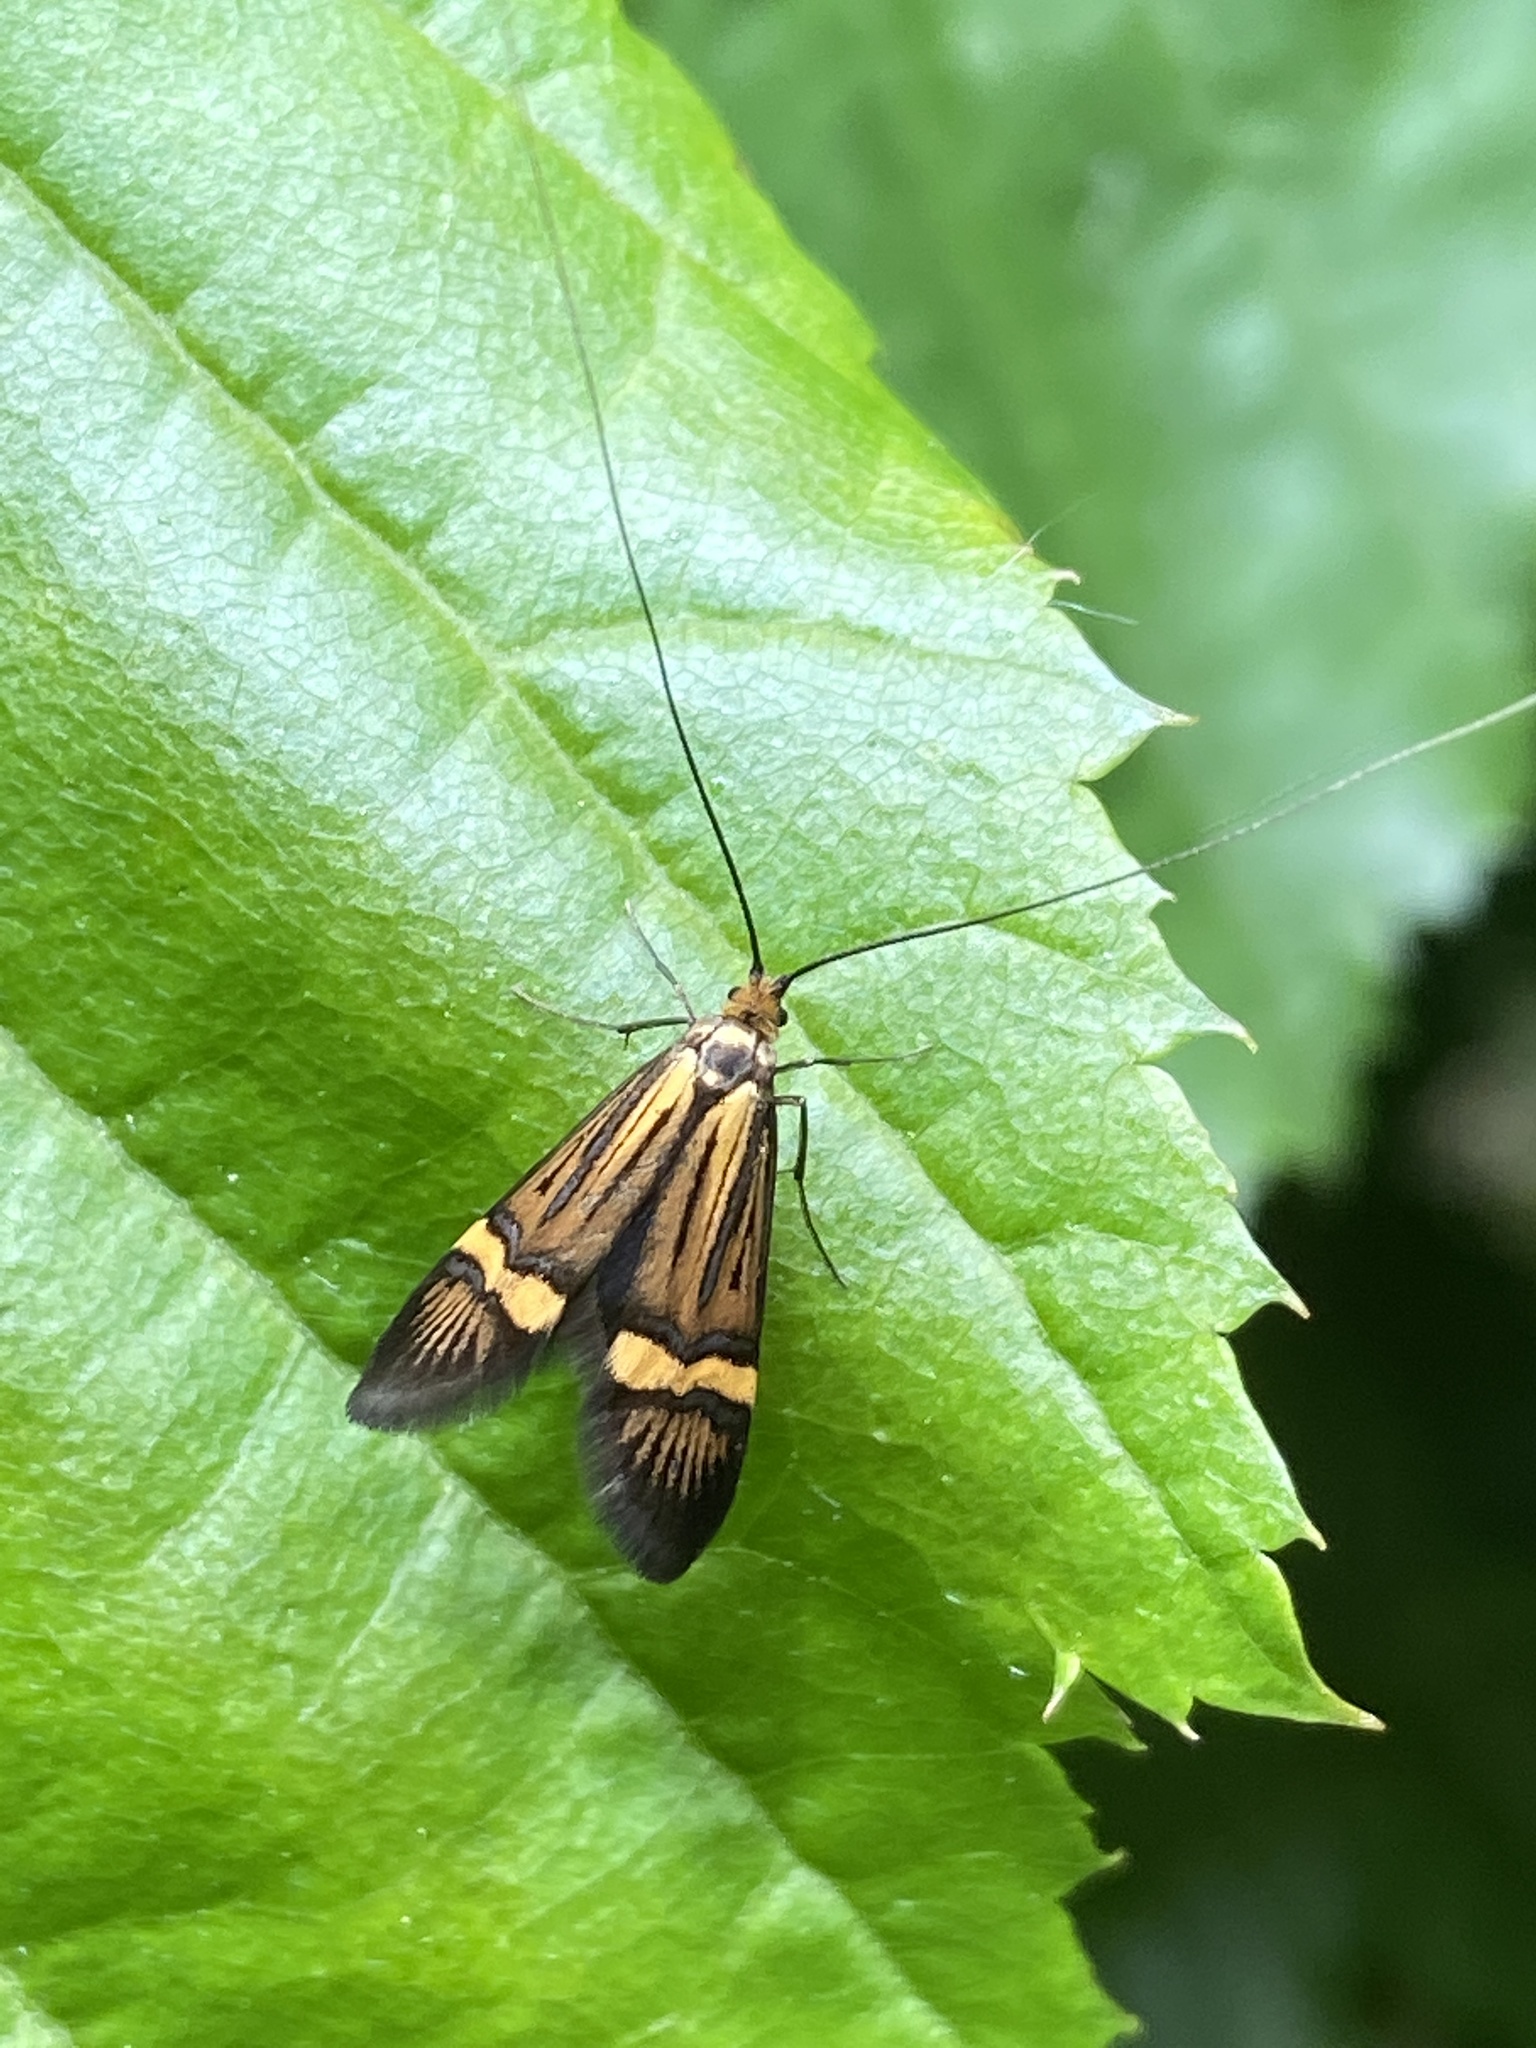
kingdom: Animalia
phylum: Arthropoda
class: Insecta
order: Lepidoptera
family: Adelidae
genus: Nemophora
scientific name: Nemophora degeerella
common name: Yellow-barred long-horn
